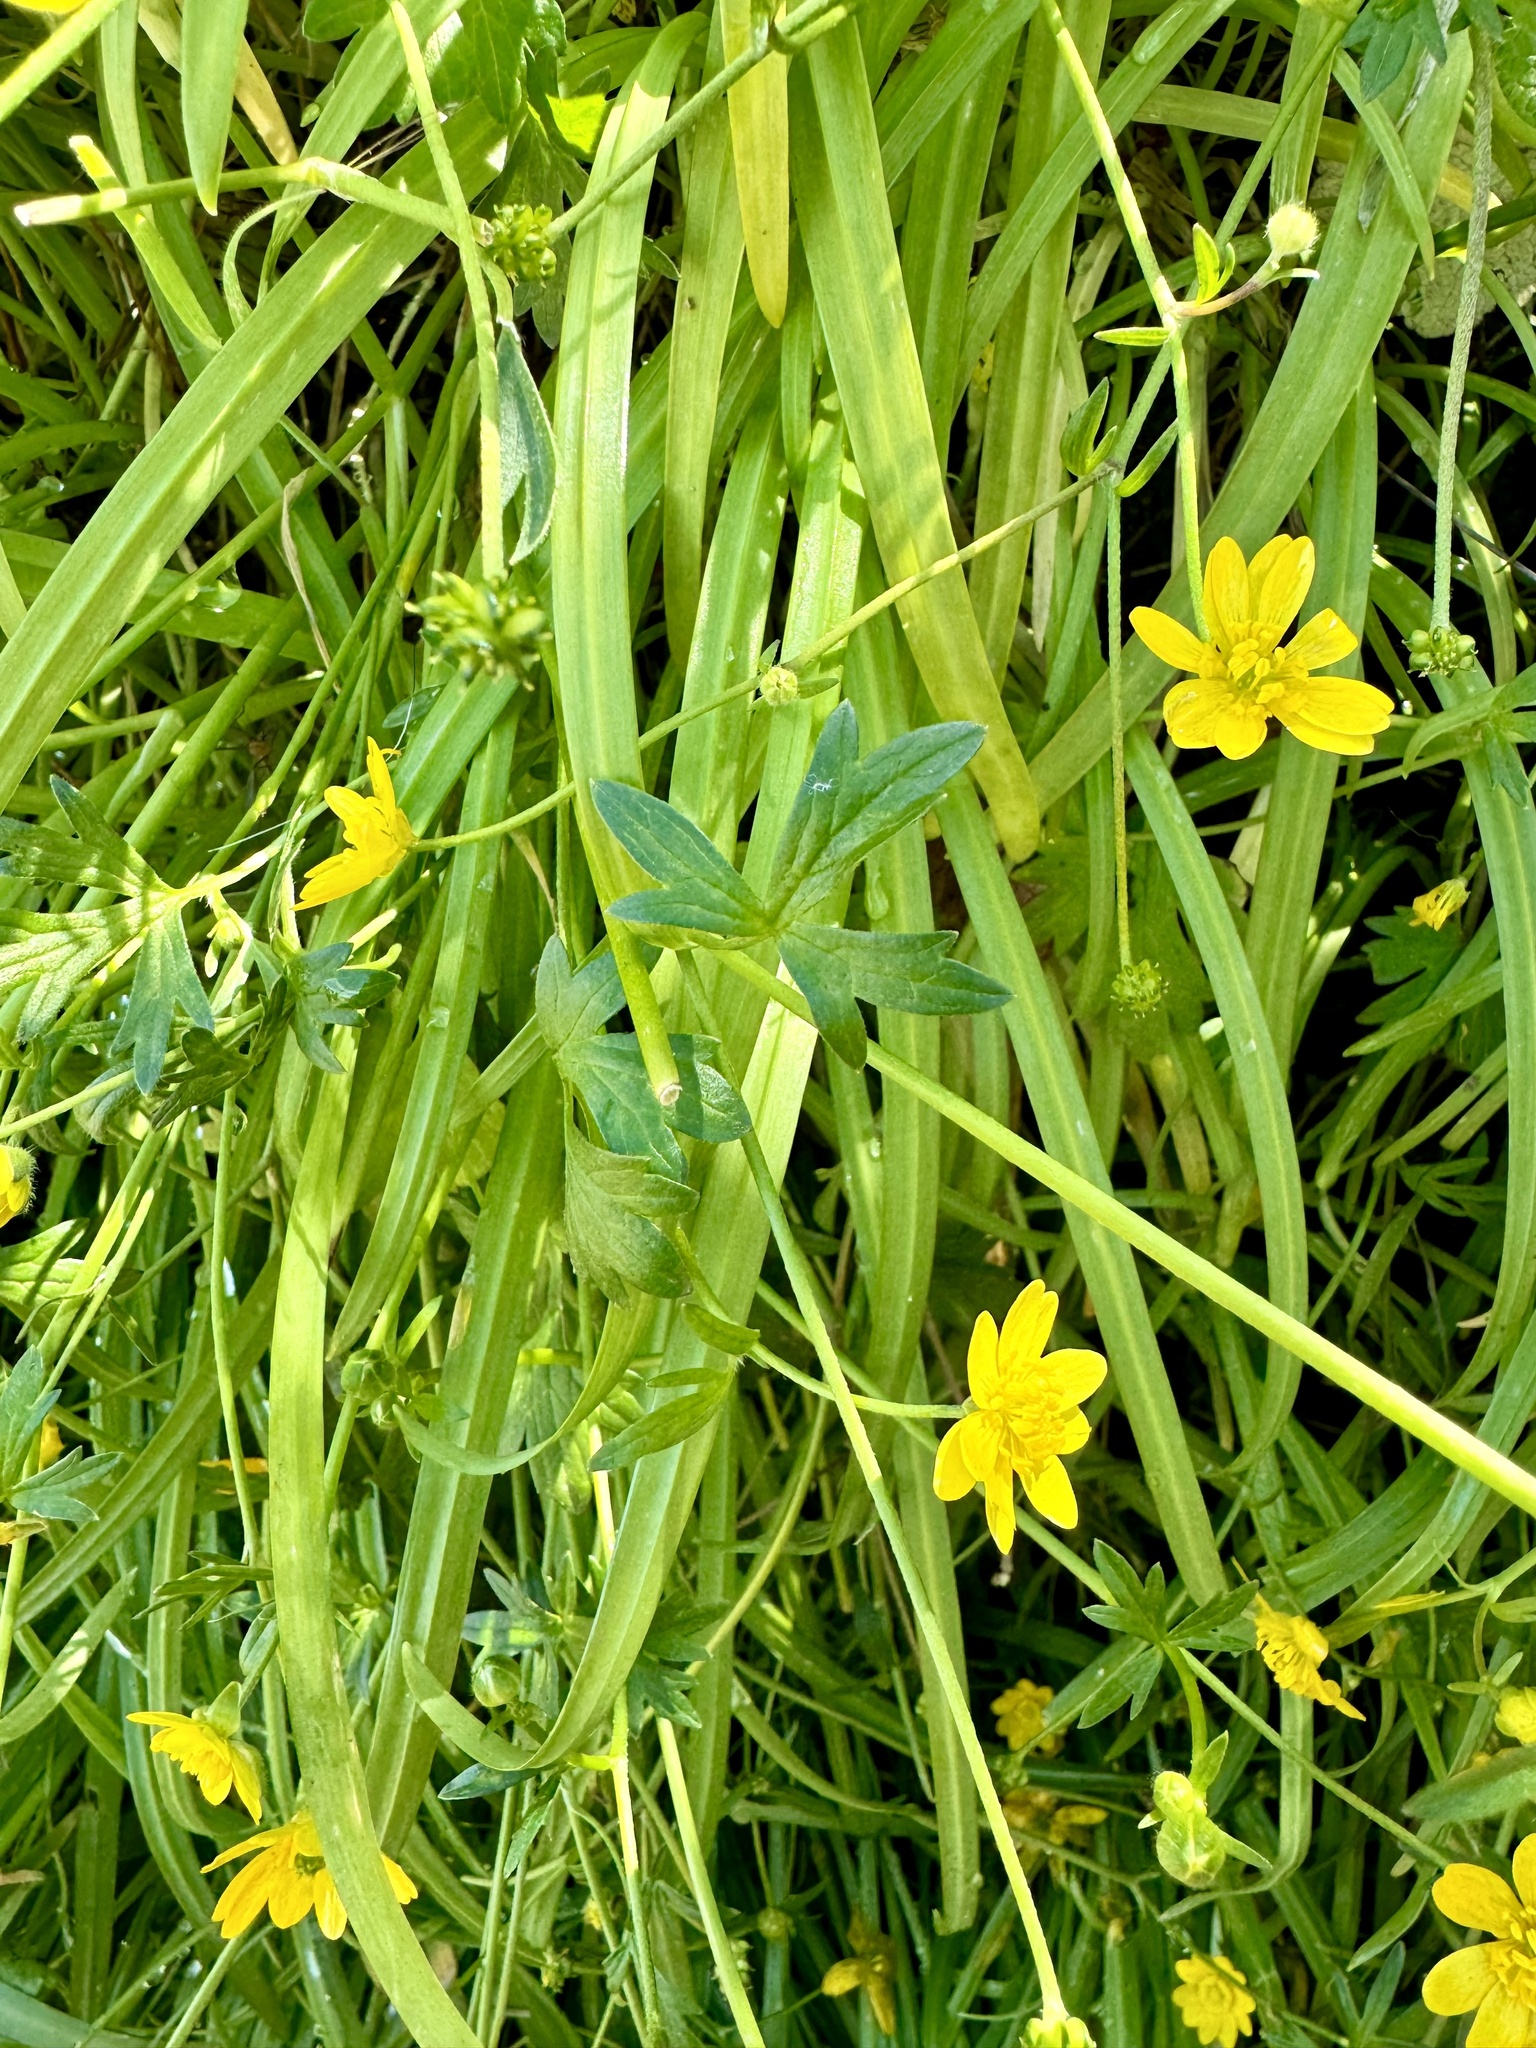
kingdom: Plantae
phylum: Tracheophyta
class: Magnoliopsida
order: Ranunculales
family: Ranunculaceae
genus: Ranunculus
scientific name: Ranunculus californicus
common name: California buttercup
